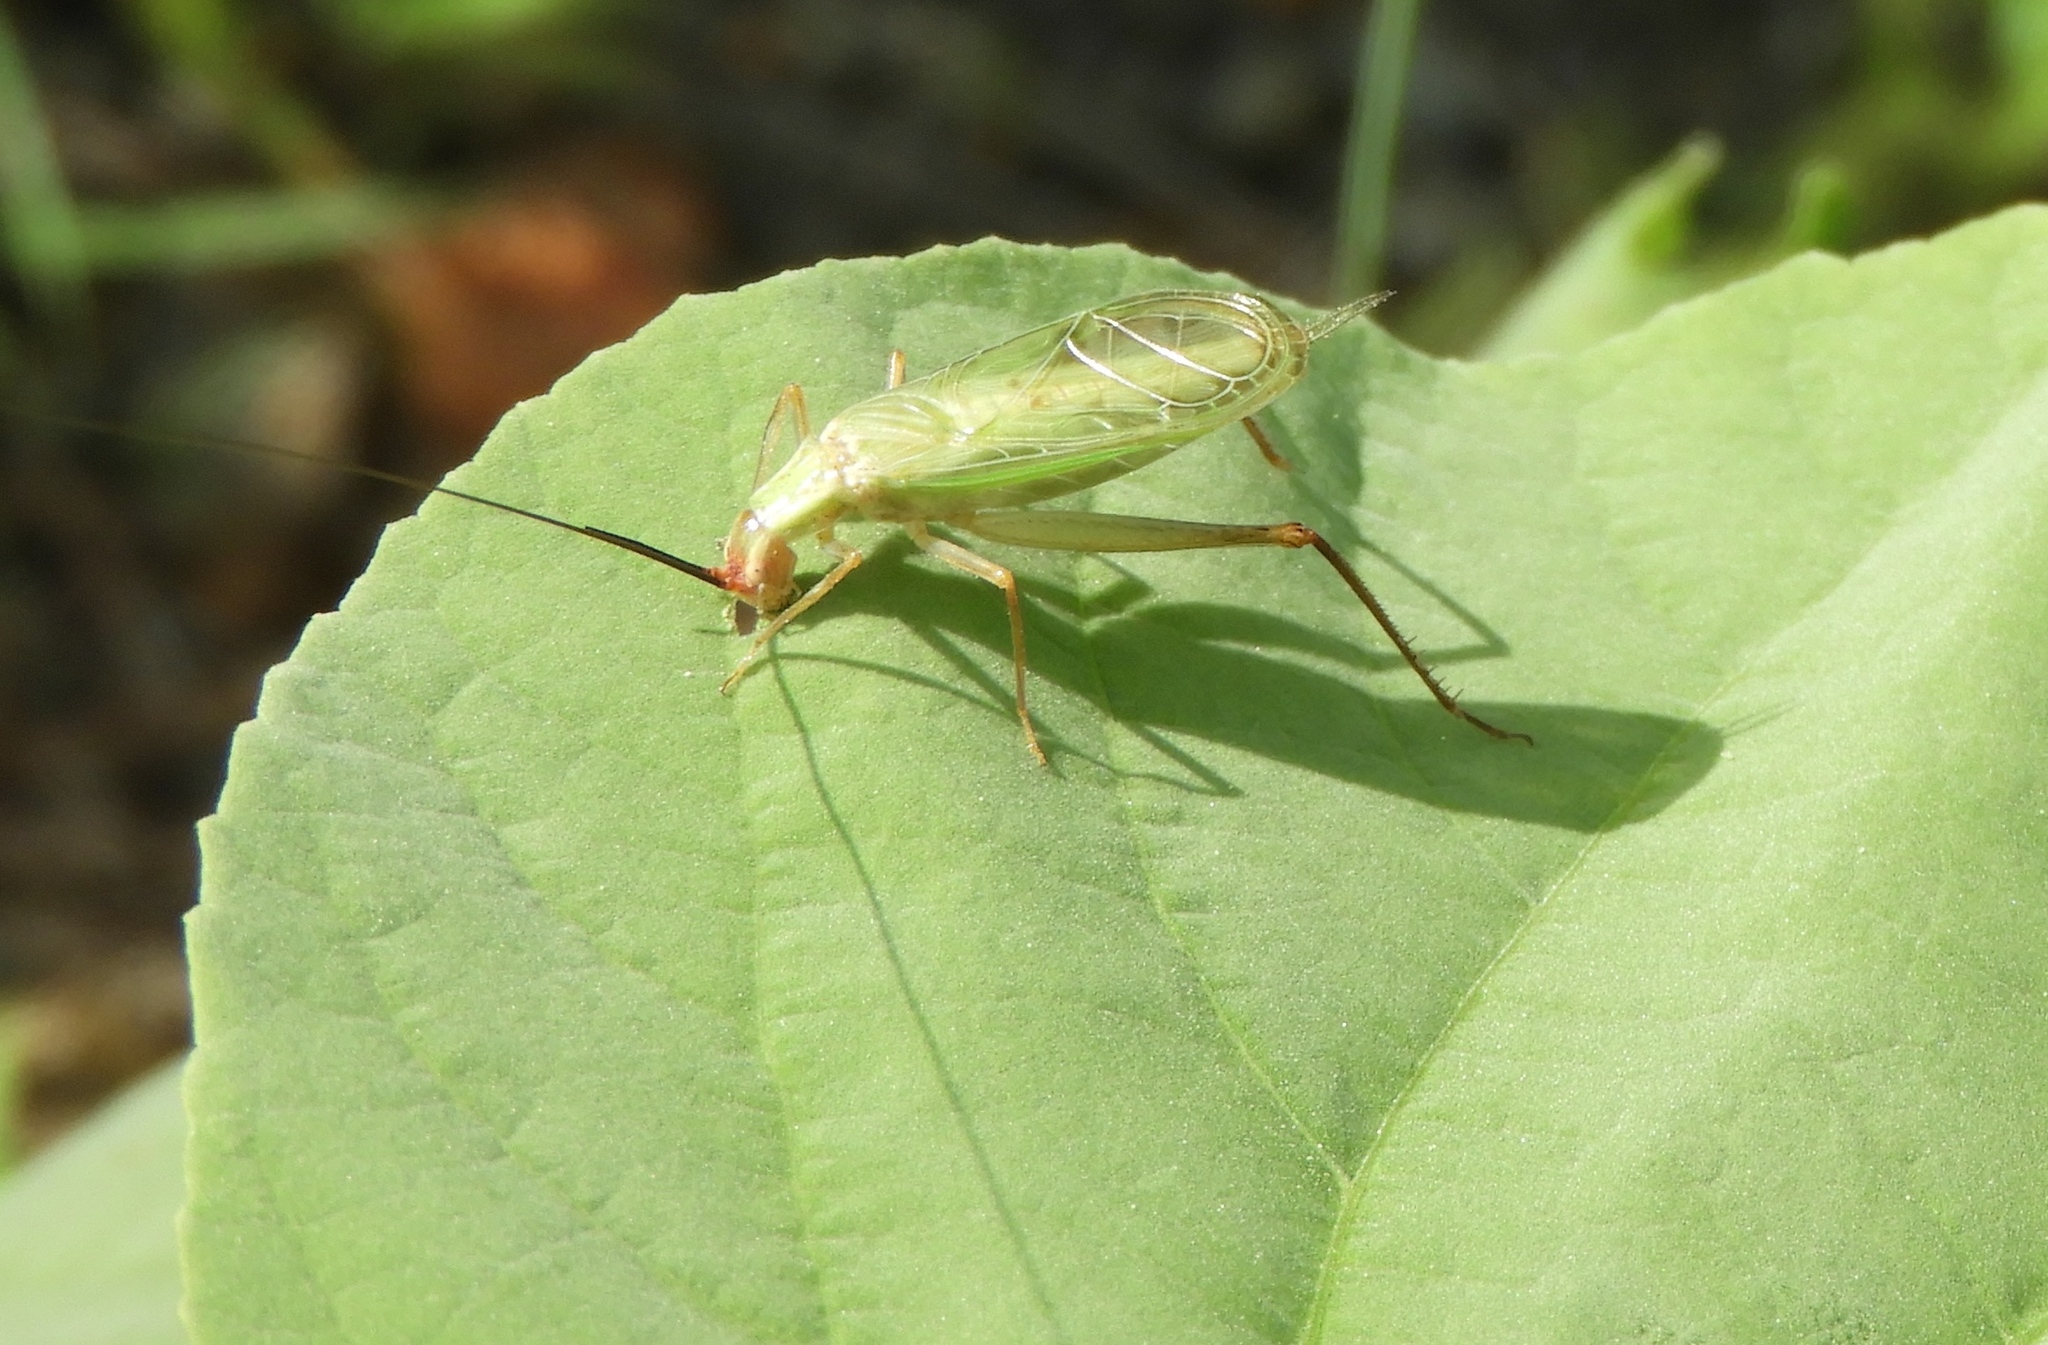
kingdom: Animalia
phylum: Arthropoda
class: Insecta
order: Orthoptera
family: Gryllidae
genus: Oecanthus
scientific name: Oecanthus
